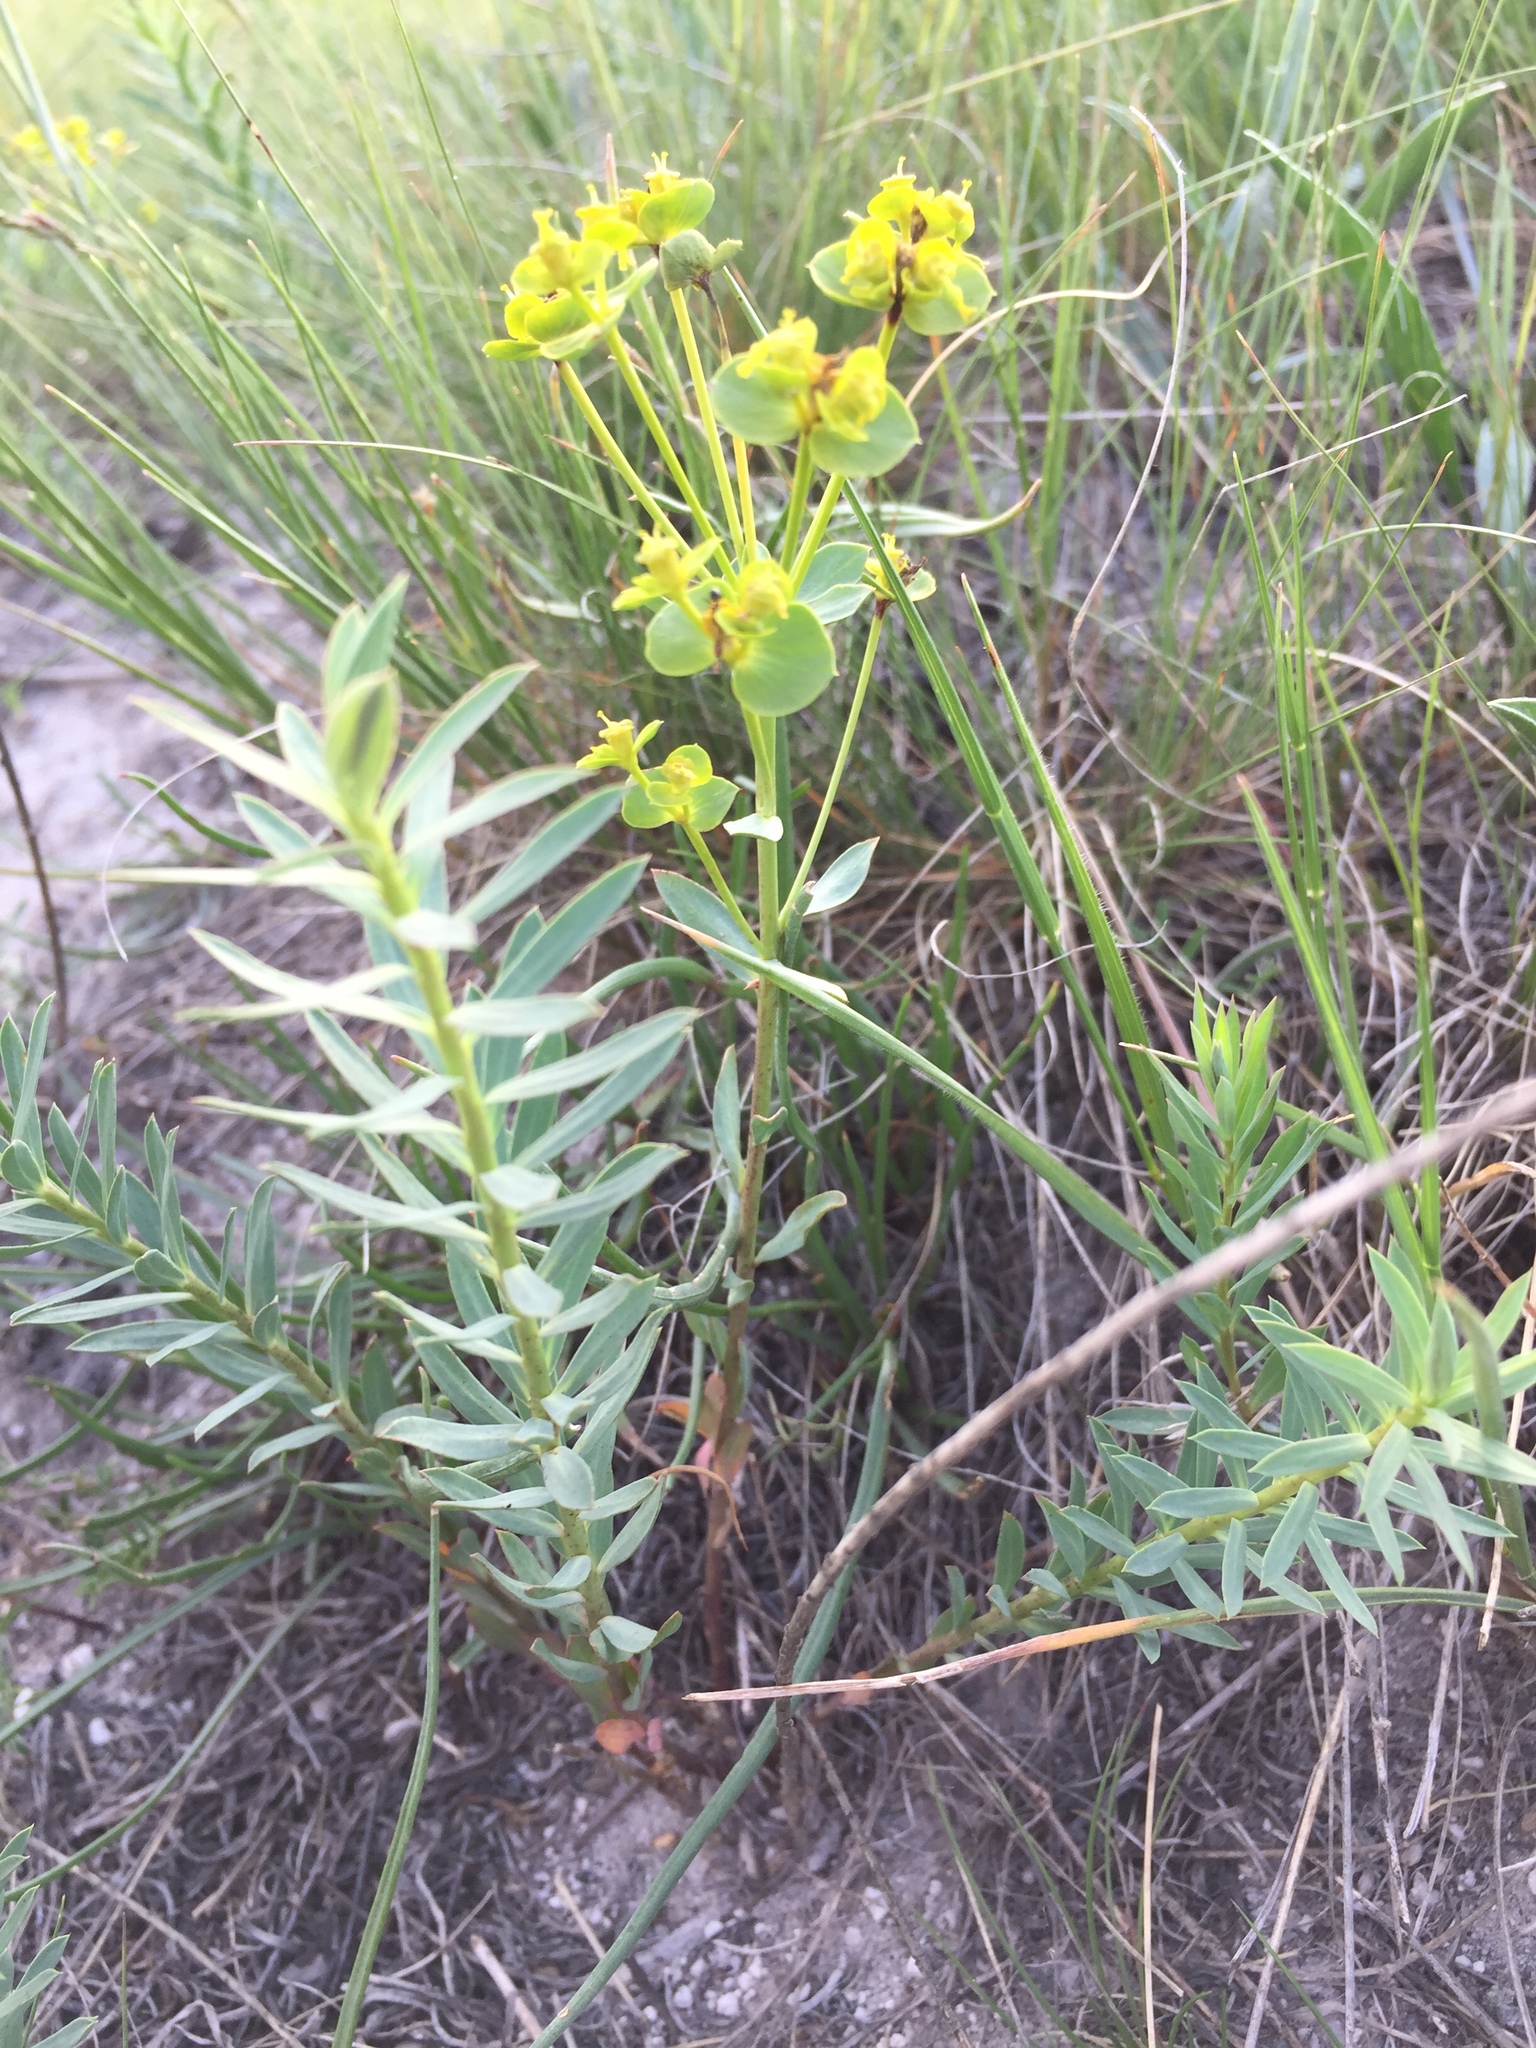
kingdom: Plantae
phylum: Tracheophyta
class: Magnoliopsida
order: Malpighiales
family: Euphorbiaceae
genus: Euphorbia
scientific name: Euphorbia seguieriana
